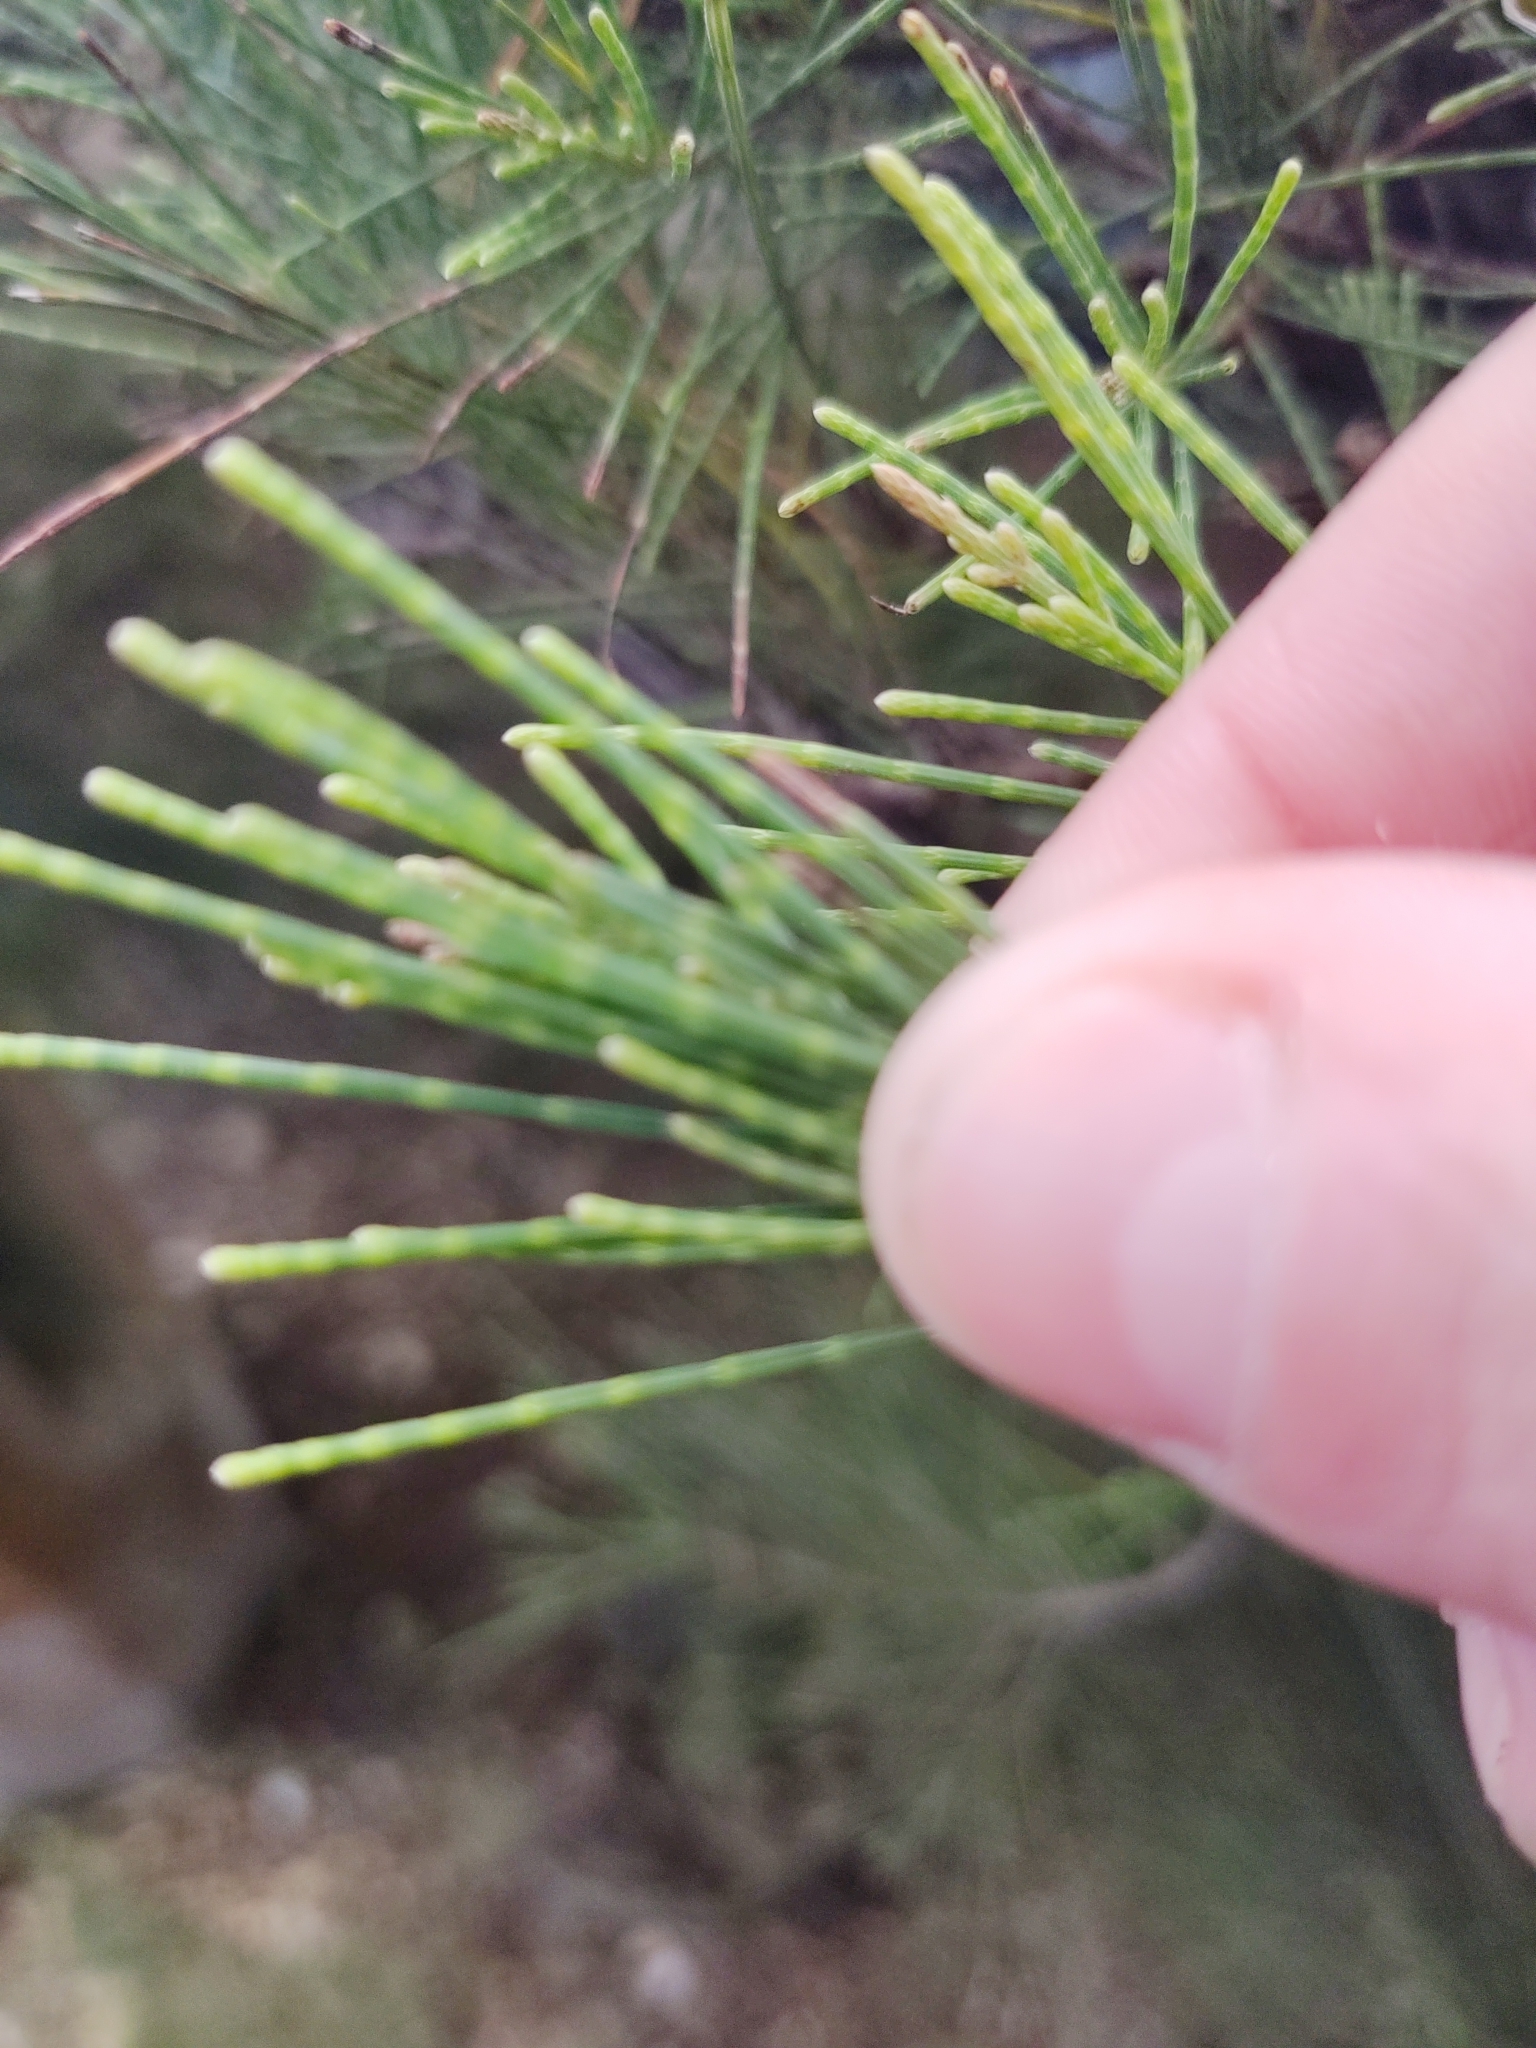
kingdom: Plantae
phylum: Tracheophyta
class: Magnoliopsida
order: Fagales
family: Casuarinaceae
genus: Casuarina
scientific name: Casuarina equisetifolia
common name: Beach sheoak
